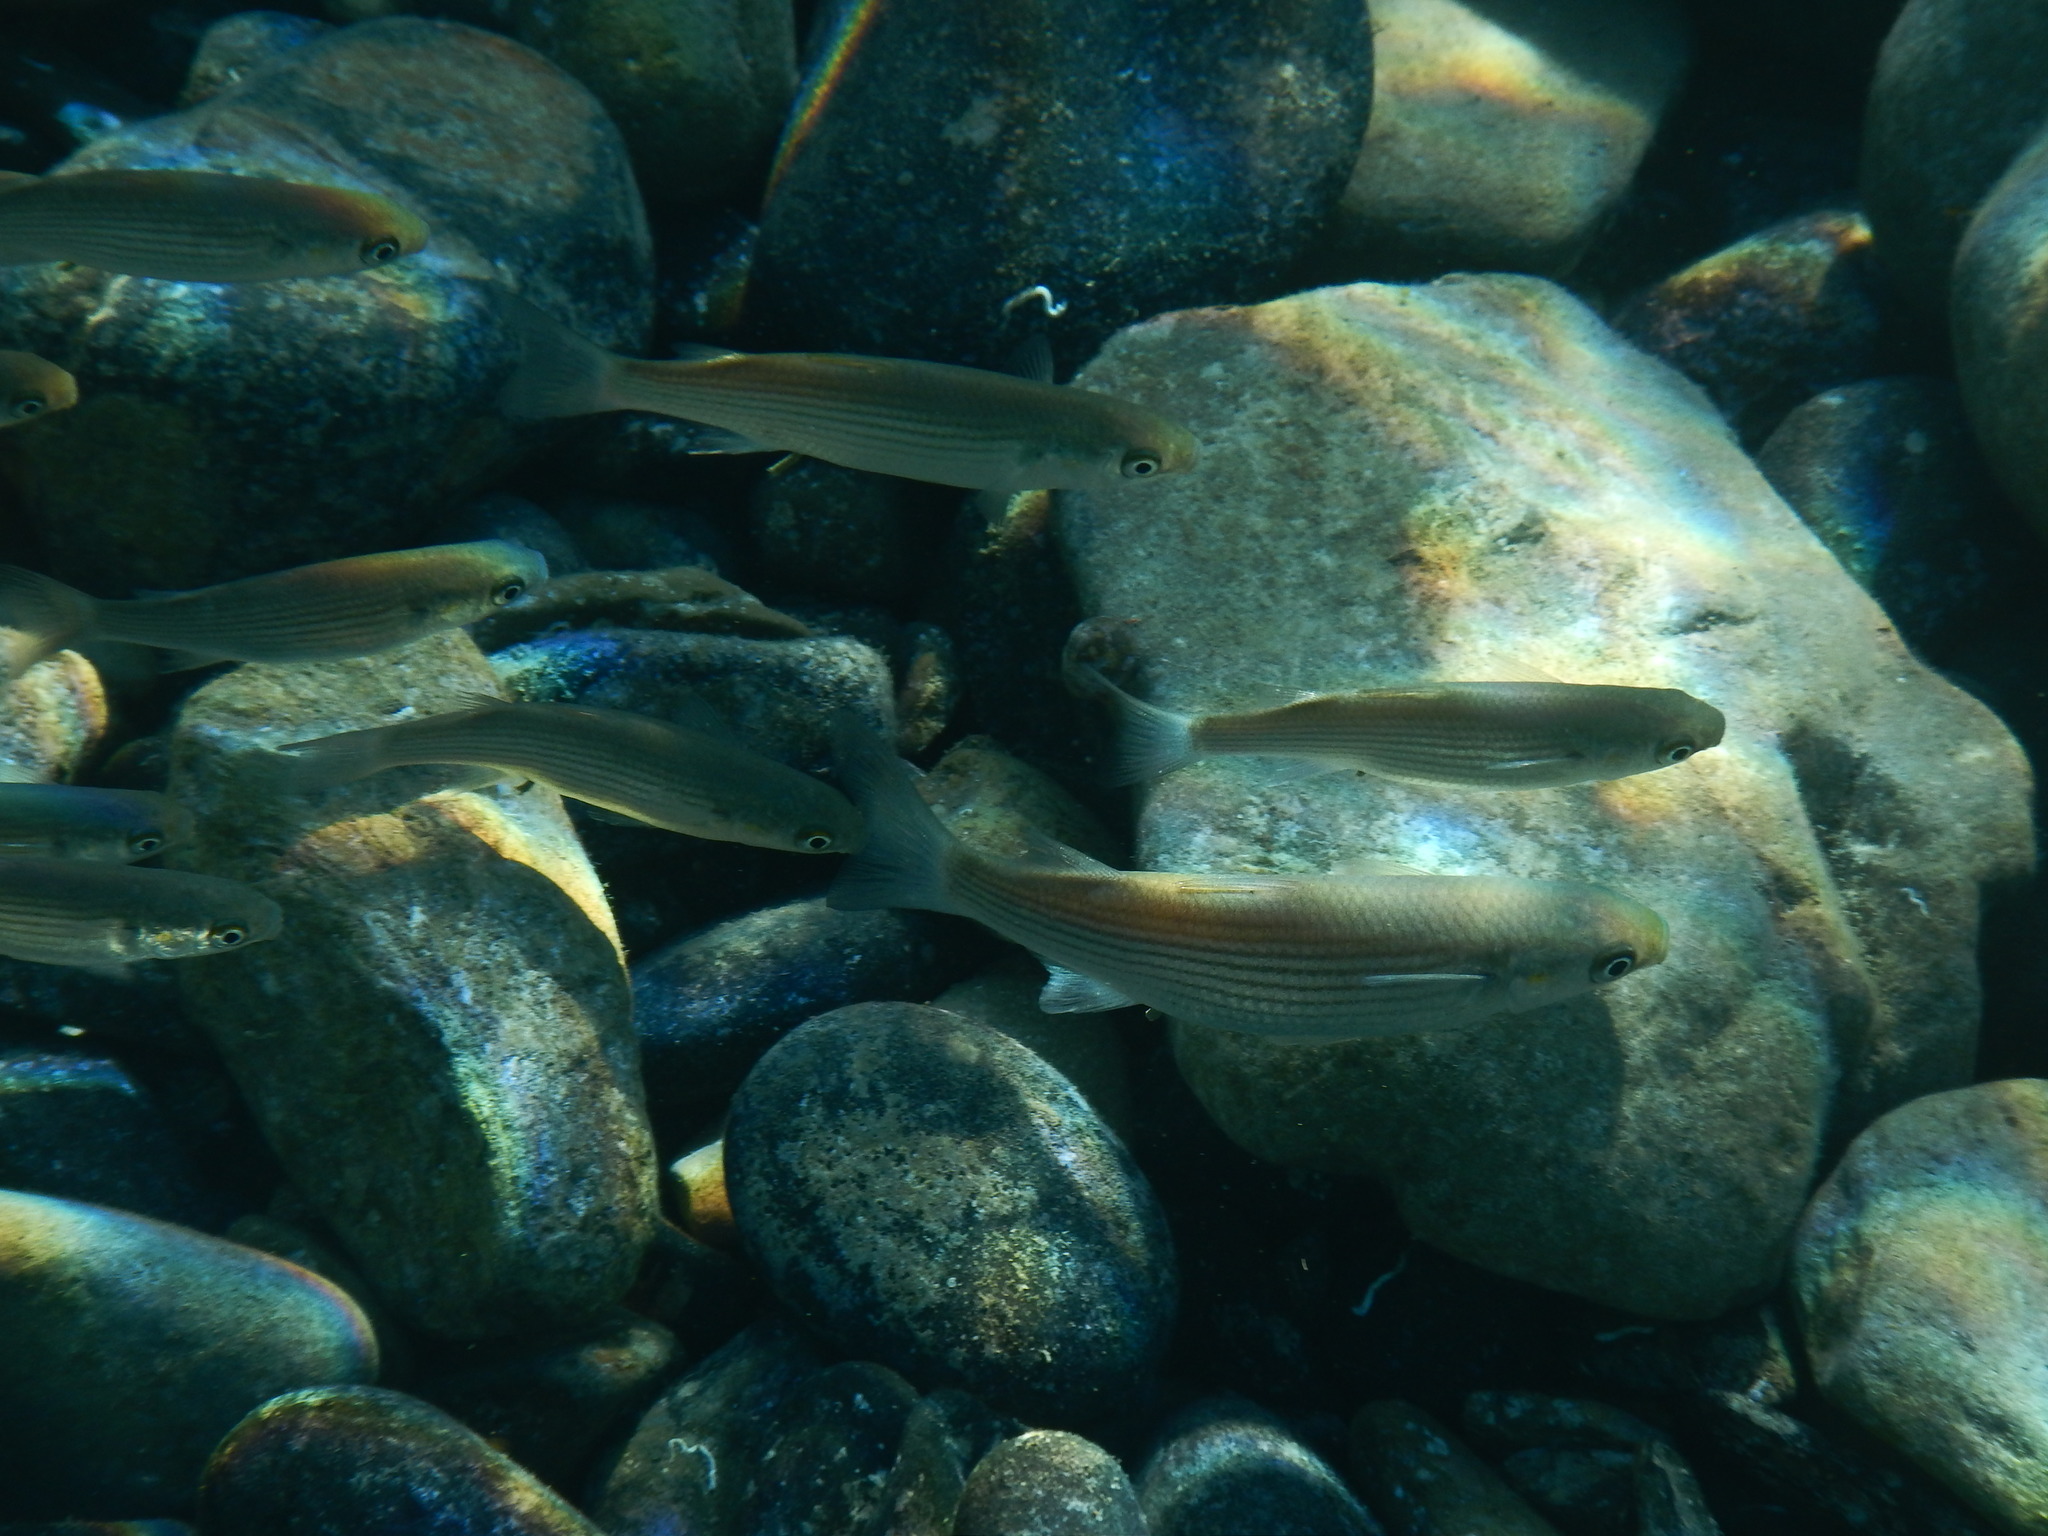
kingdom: Animalia
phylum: Chordata
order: Mugiliformes
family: Mugilidae
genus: Chelon
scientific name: Chelon
